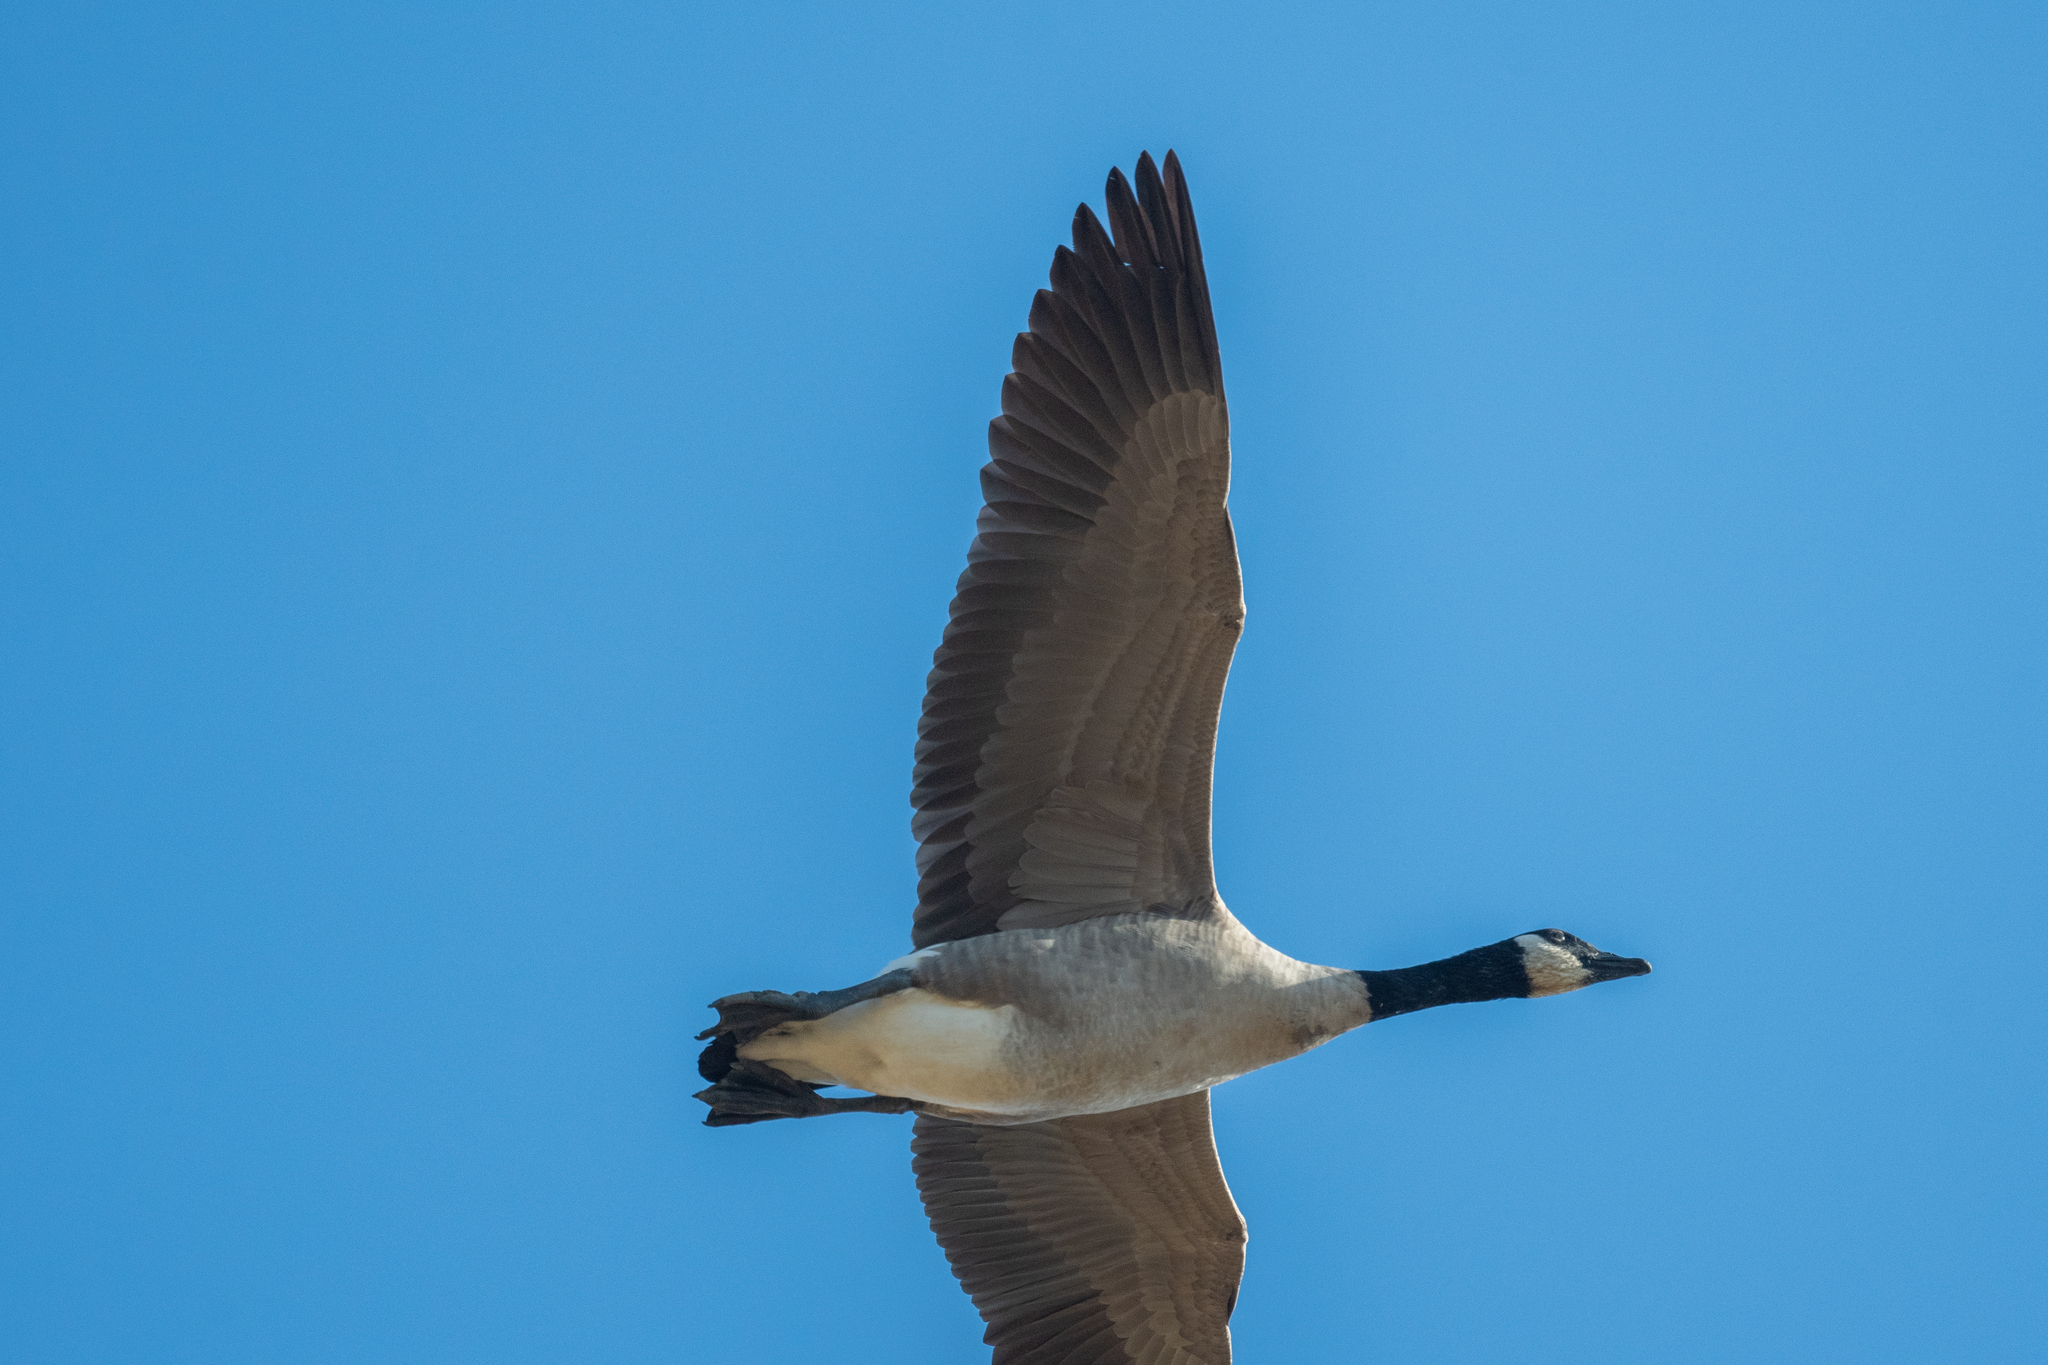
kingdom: Animalia
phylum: Chordata
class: Aves
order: Anseriformes
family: Anatidae
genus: Branta
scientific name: Branta canadensis
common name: Canada goose
